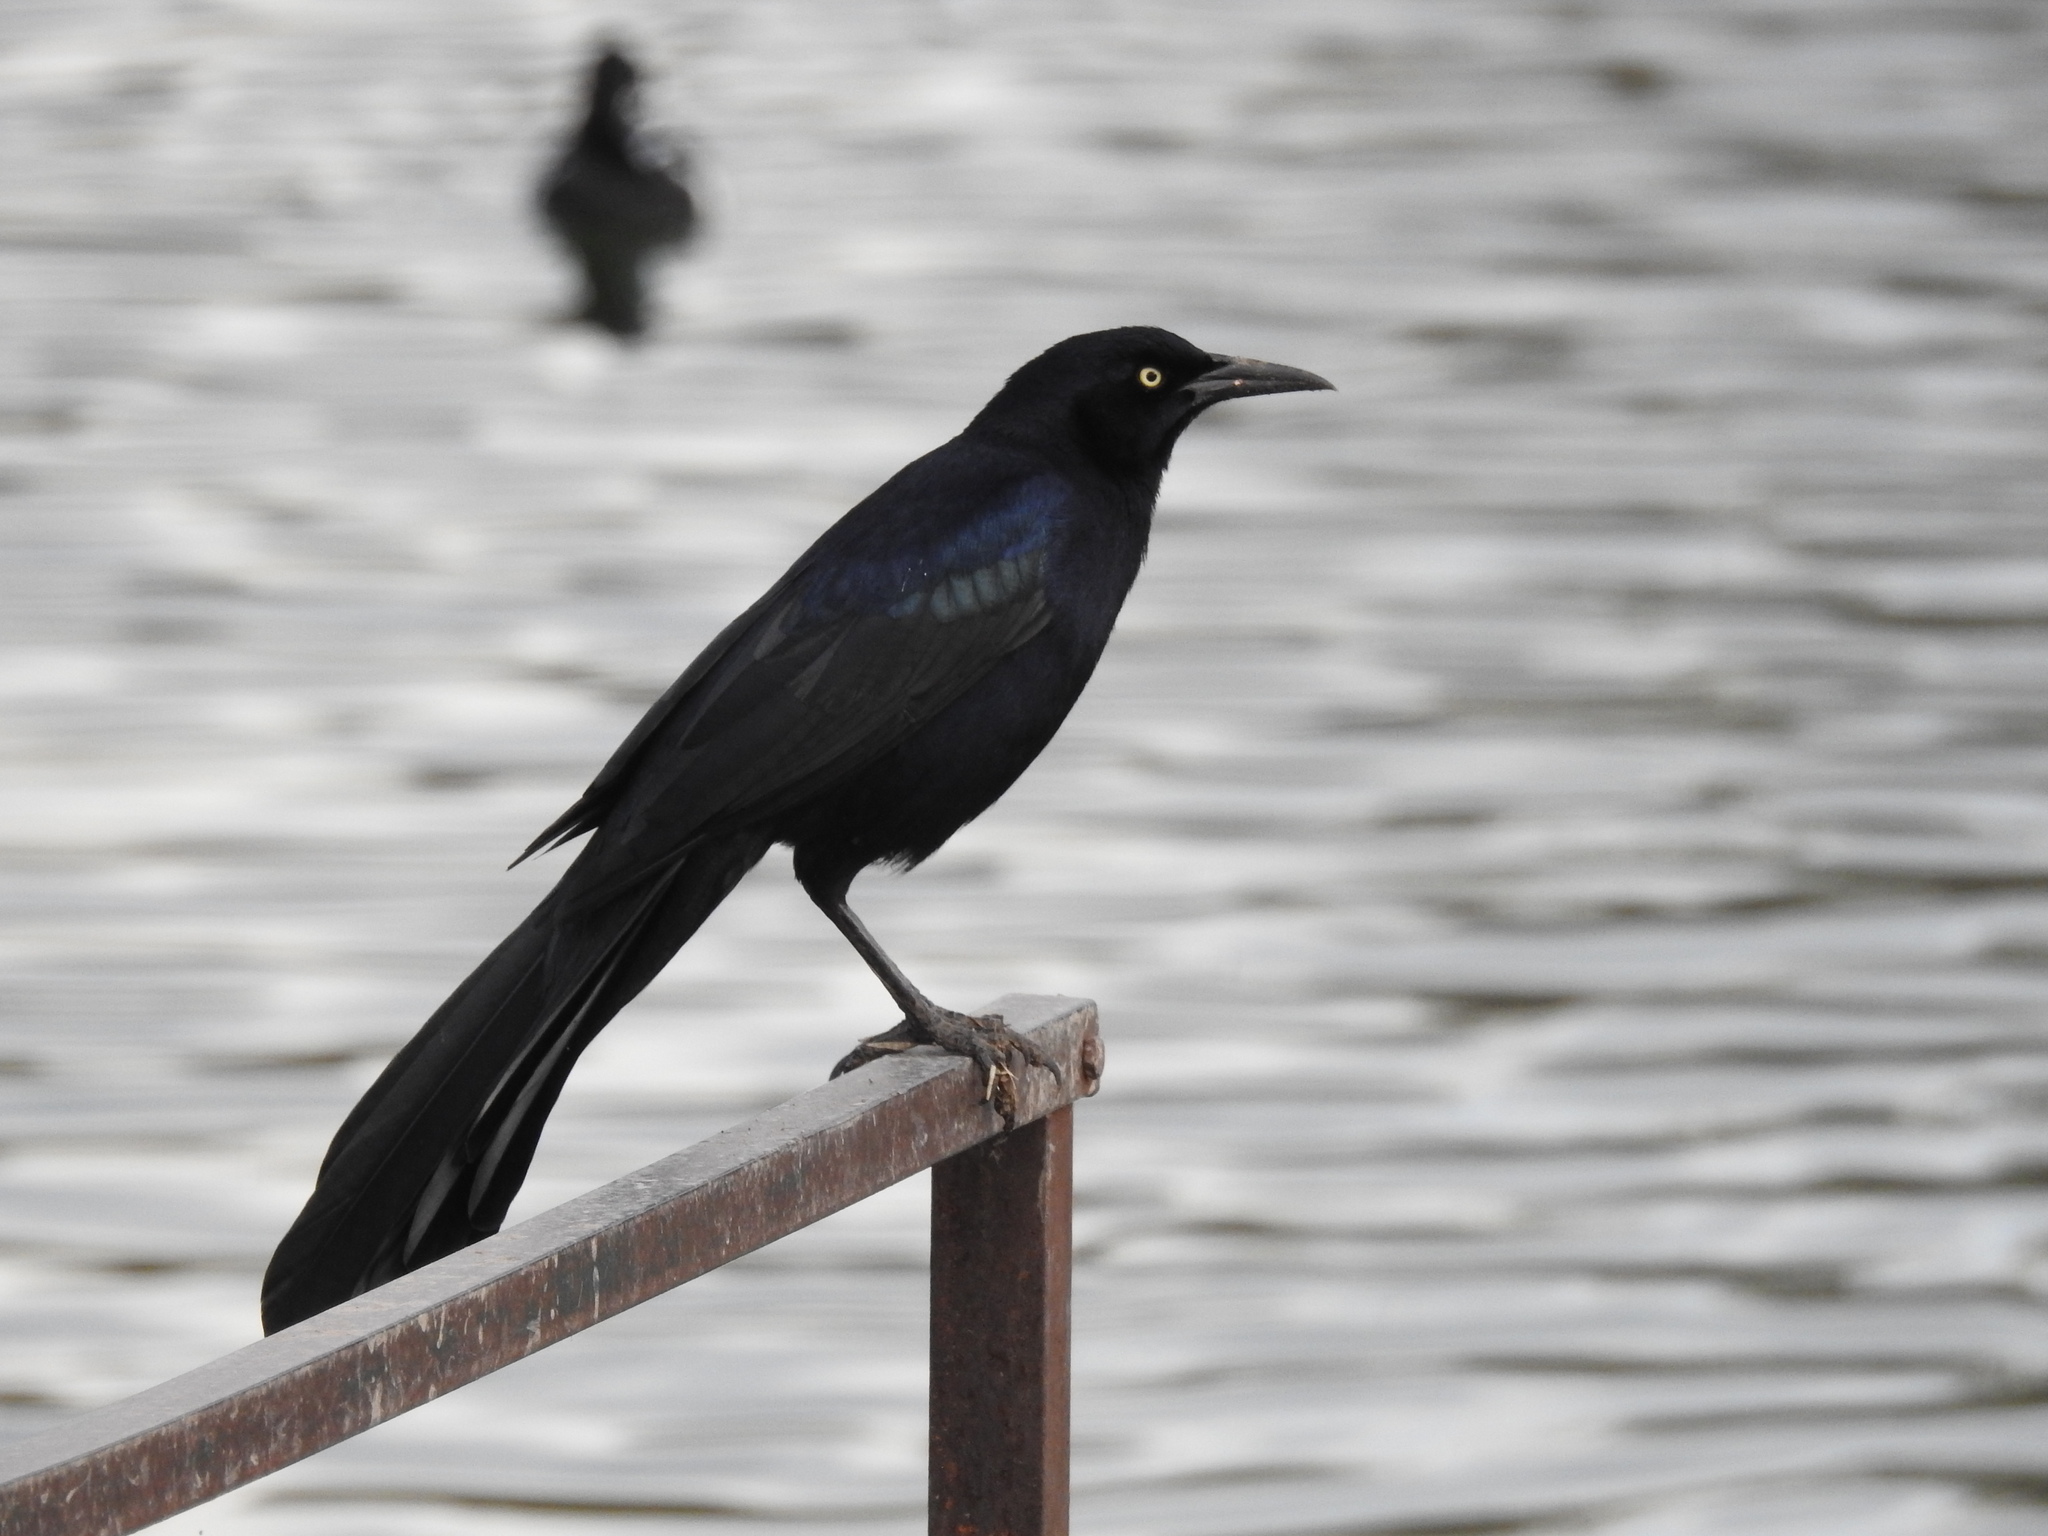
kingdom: Animalia
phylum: Chordata
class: Aves
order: Passeriformes
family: Icteridae
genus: Quiscalus
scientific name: Quiscalus mexicanus
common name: Great-tailed grackle
